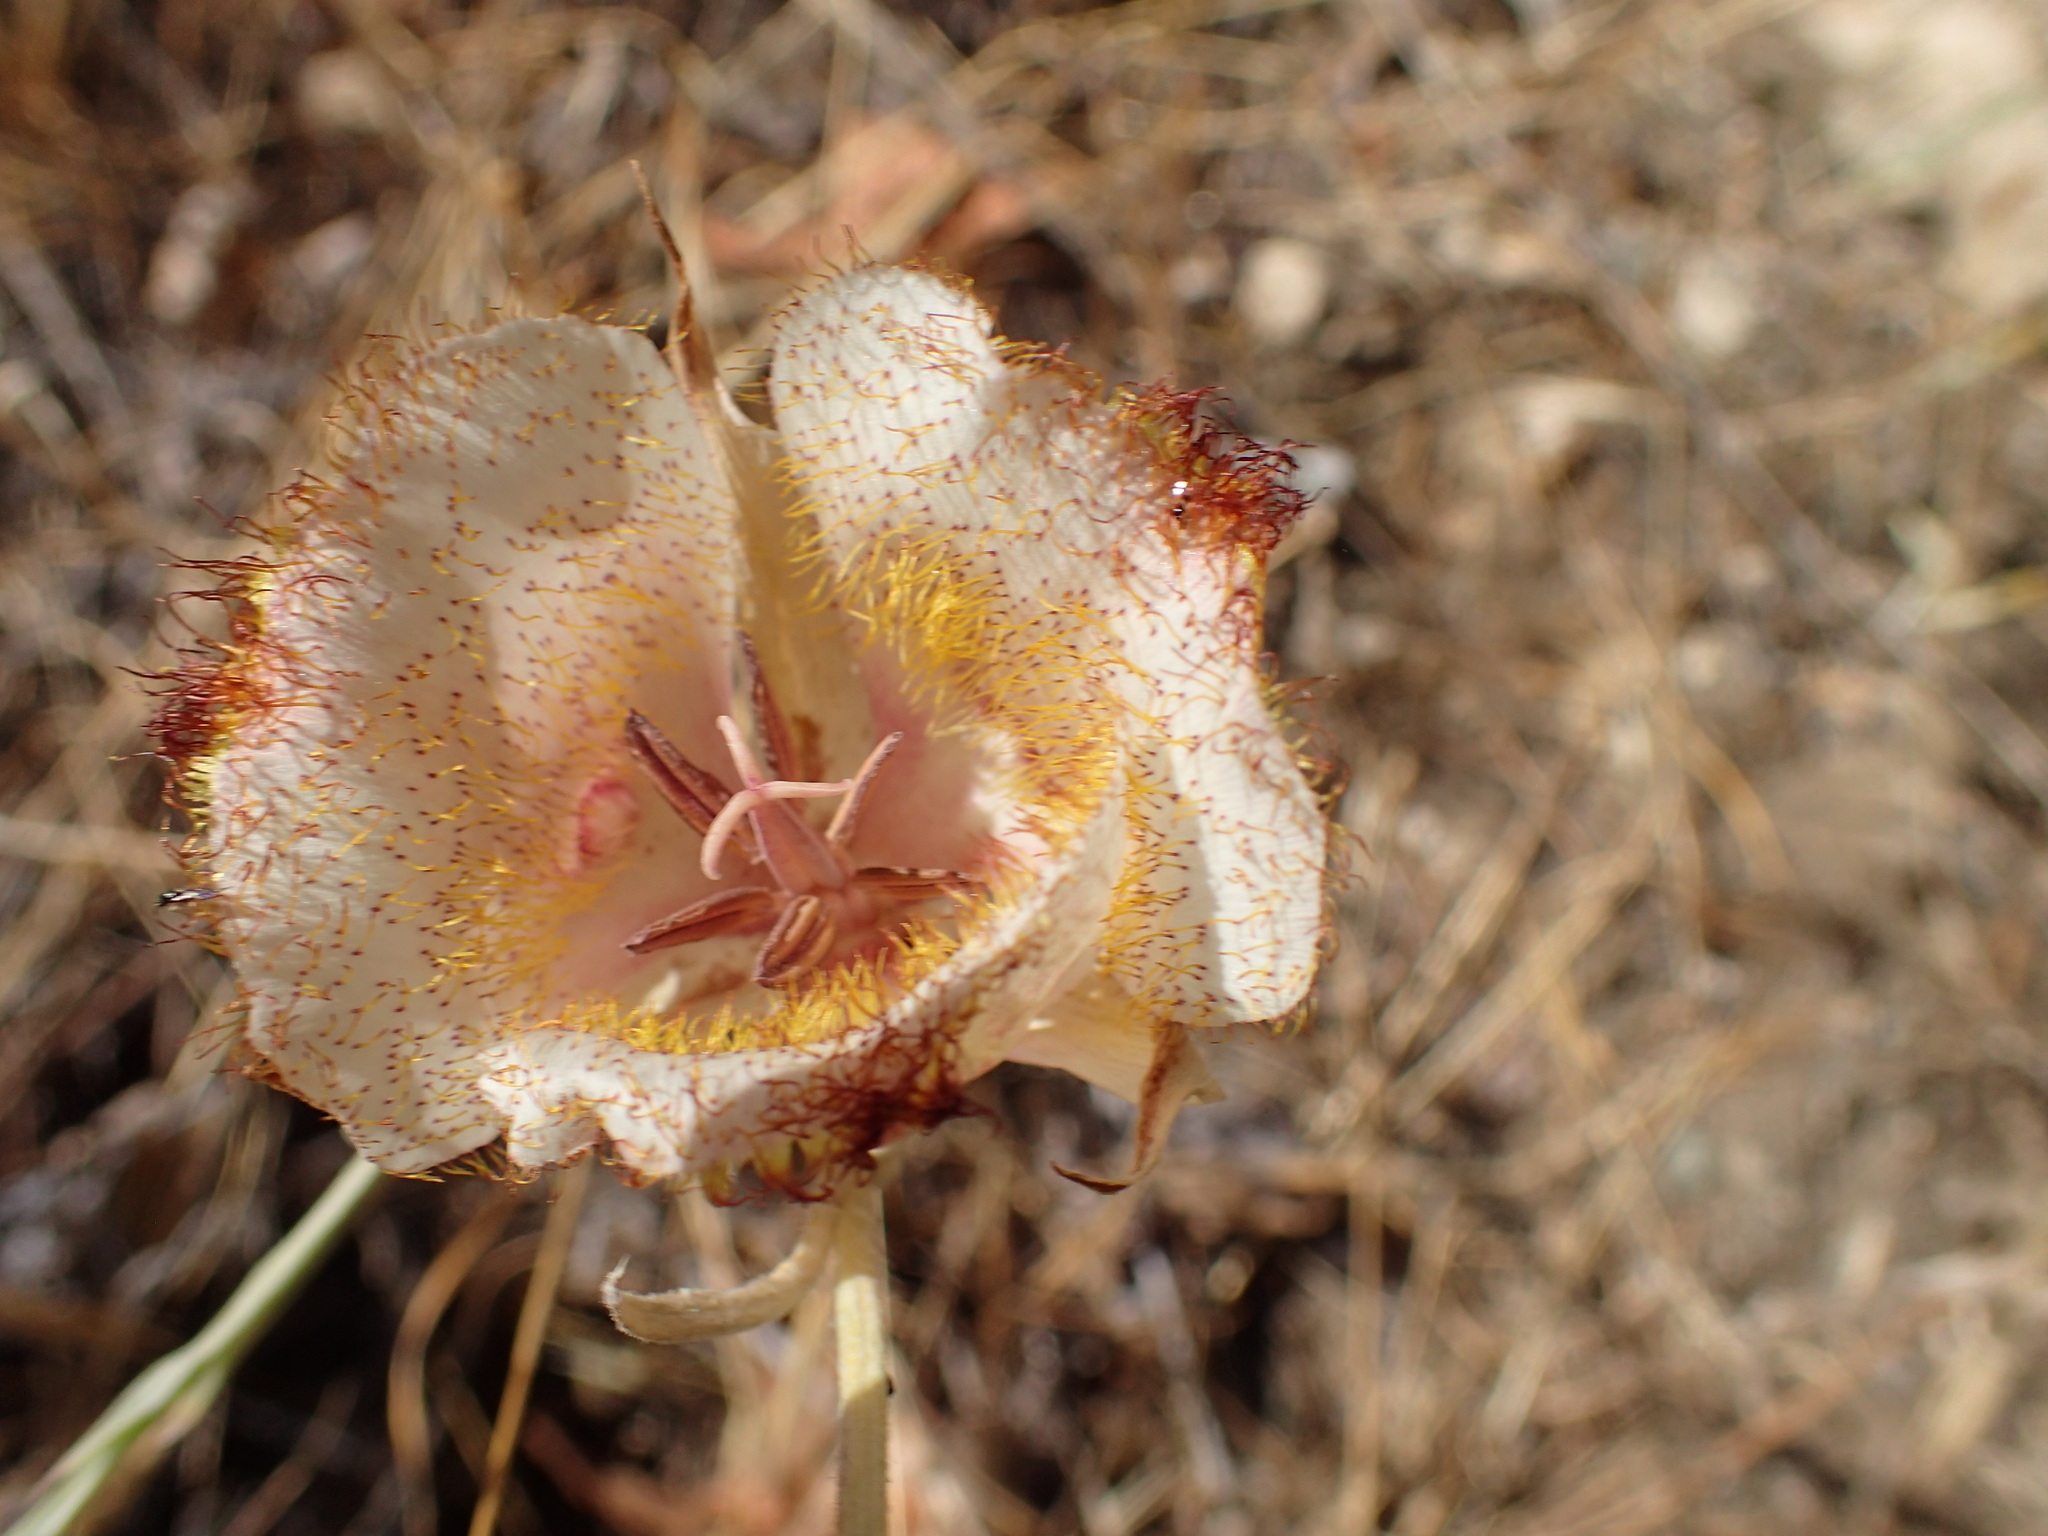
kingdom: Plantae
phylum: Tracheophyta
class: Liliopsida
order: Liliales
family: Liliaceae
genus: Calochortus
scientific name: Calochortus fimbriatus
